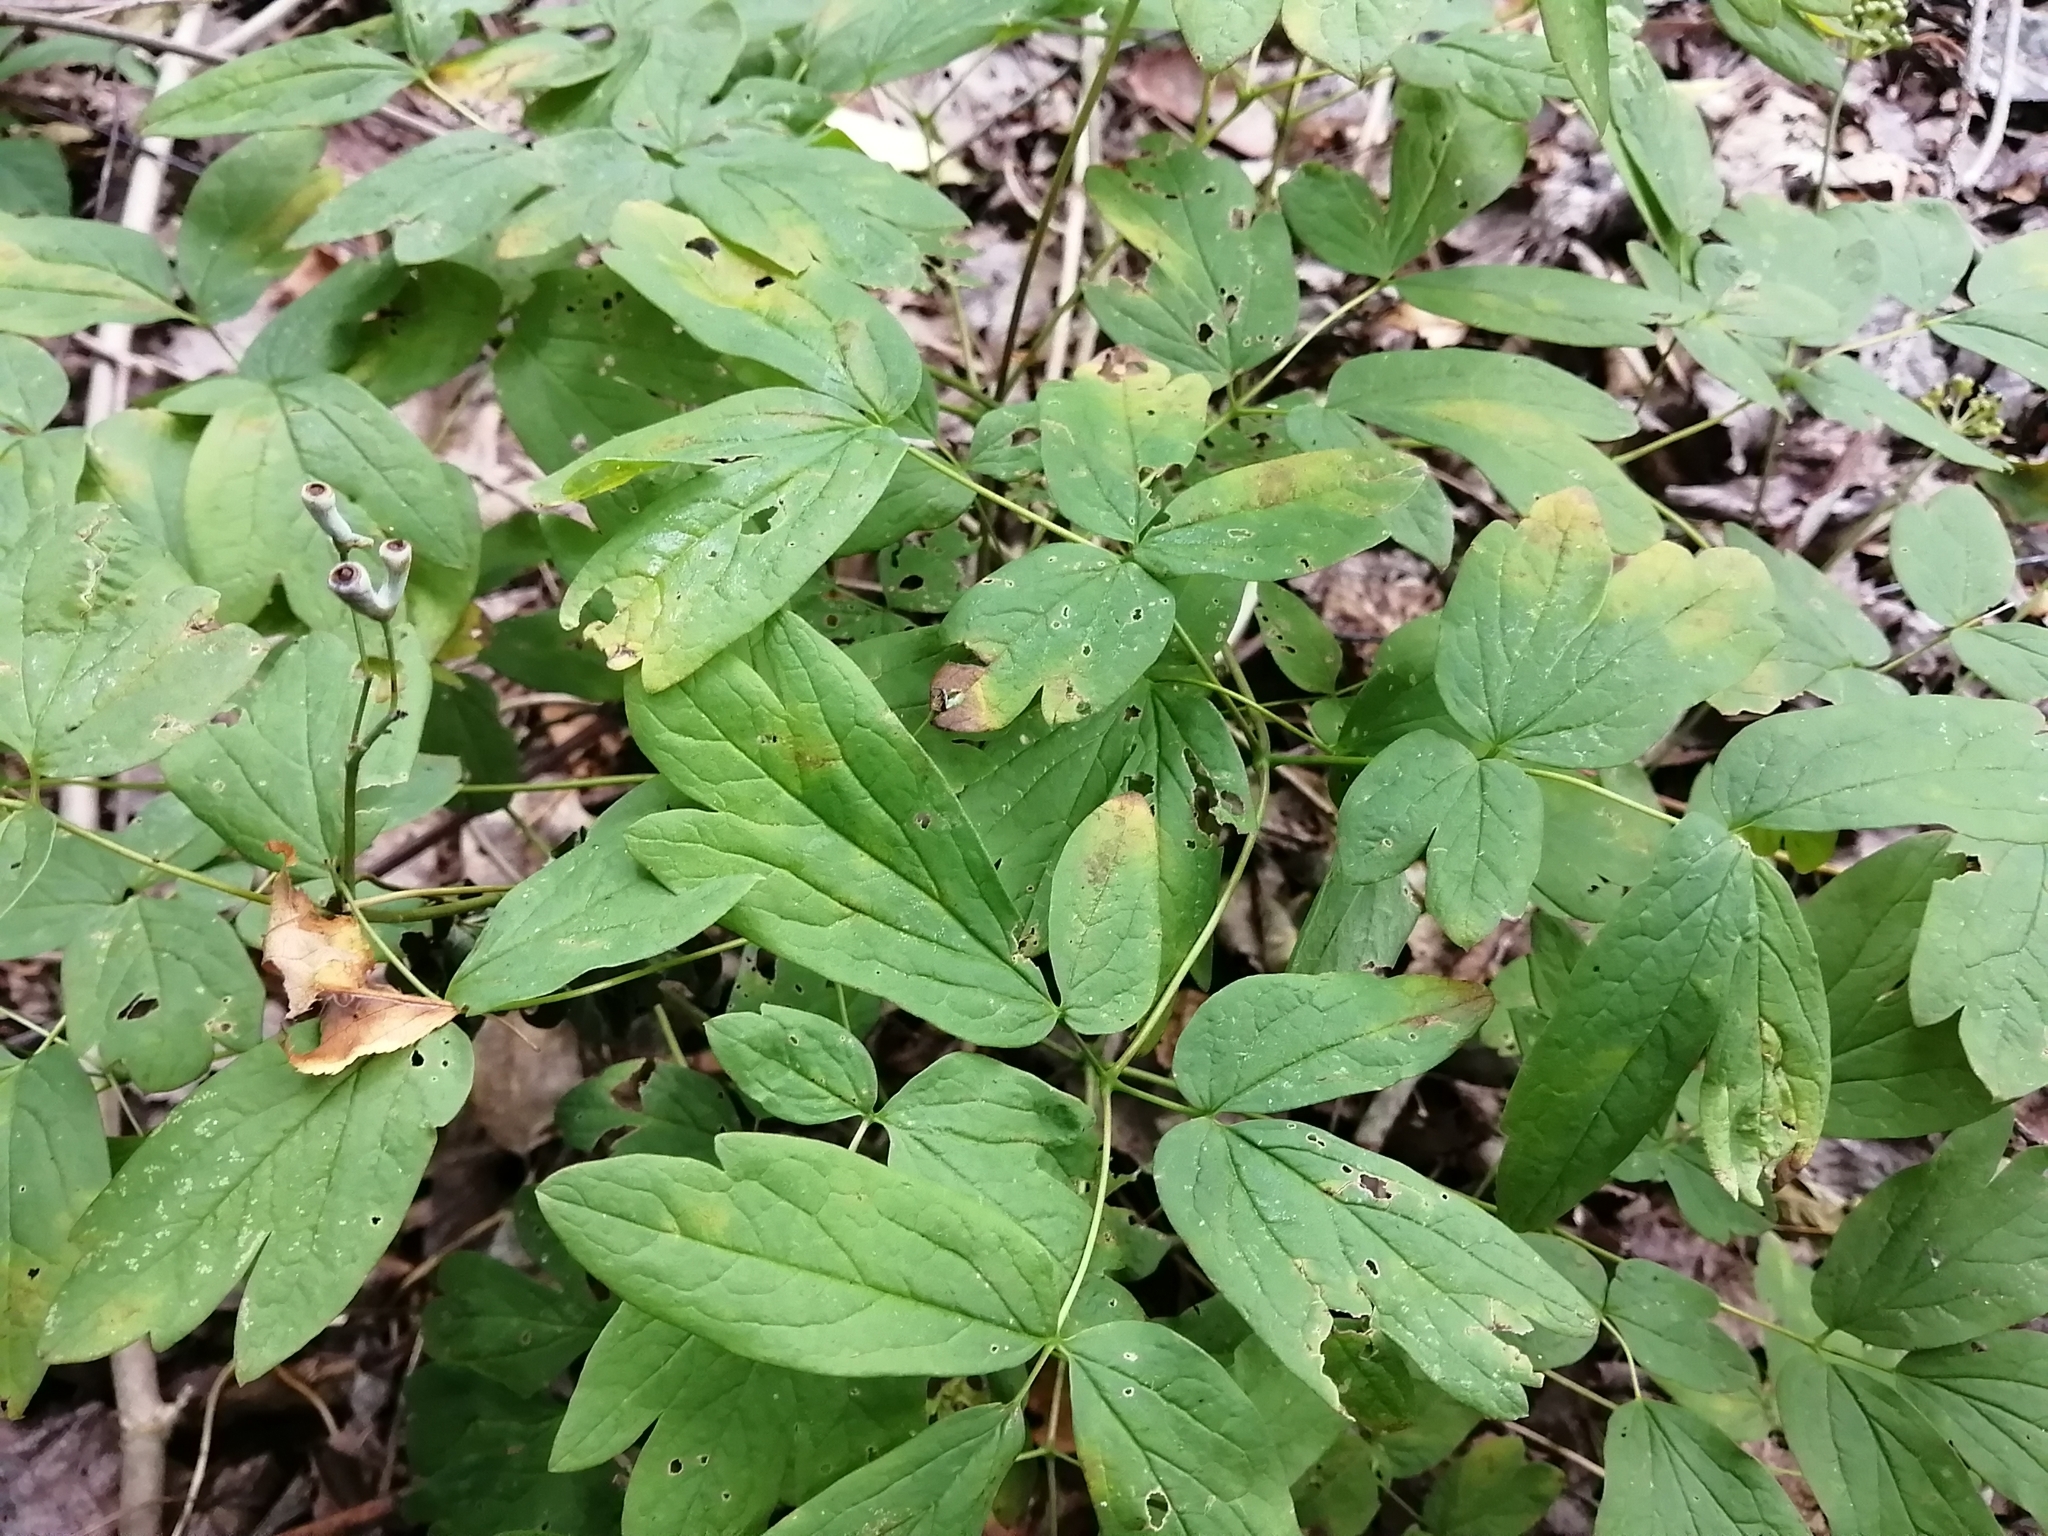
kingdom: Plantae
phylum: Tracheophyta
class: Magnoliopsida
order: Ranunculales
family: Berberidaceae
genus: Caulophyllum
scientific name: Caulophyllum thalictroides
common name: Blue cohosh
